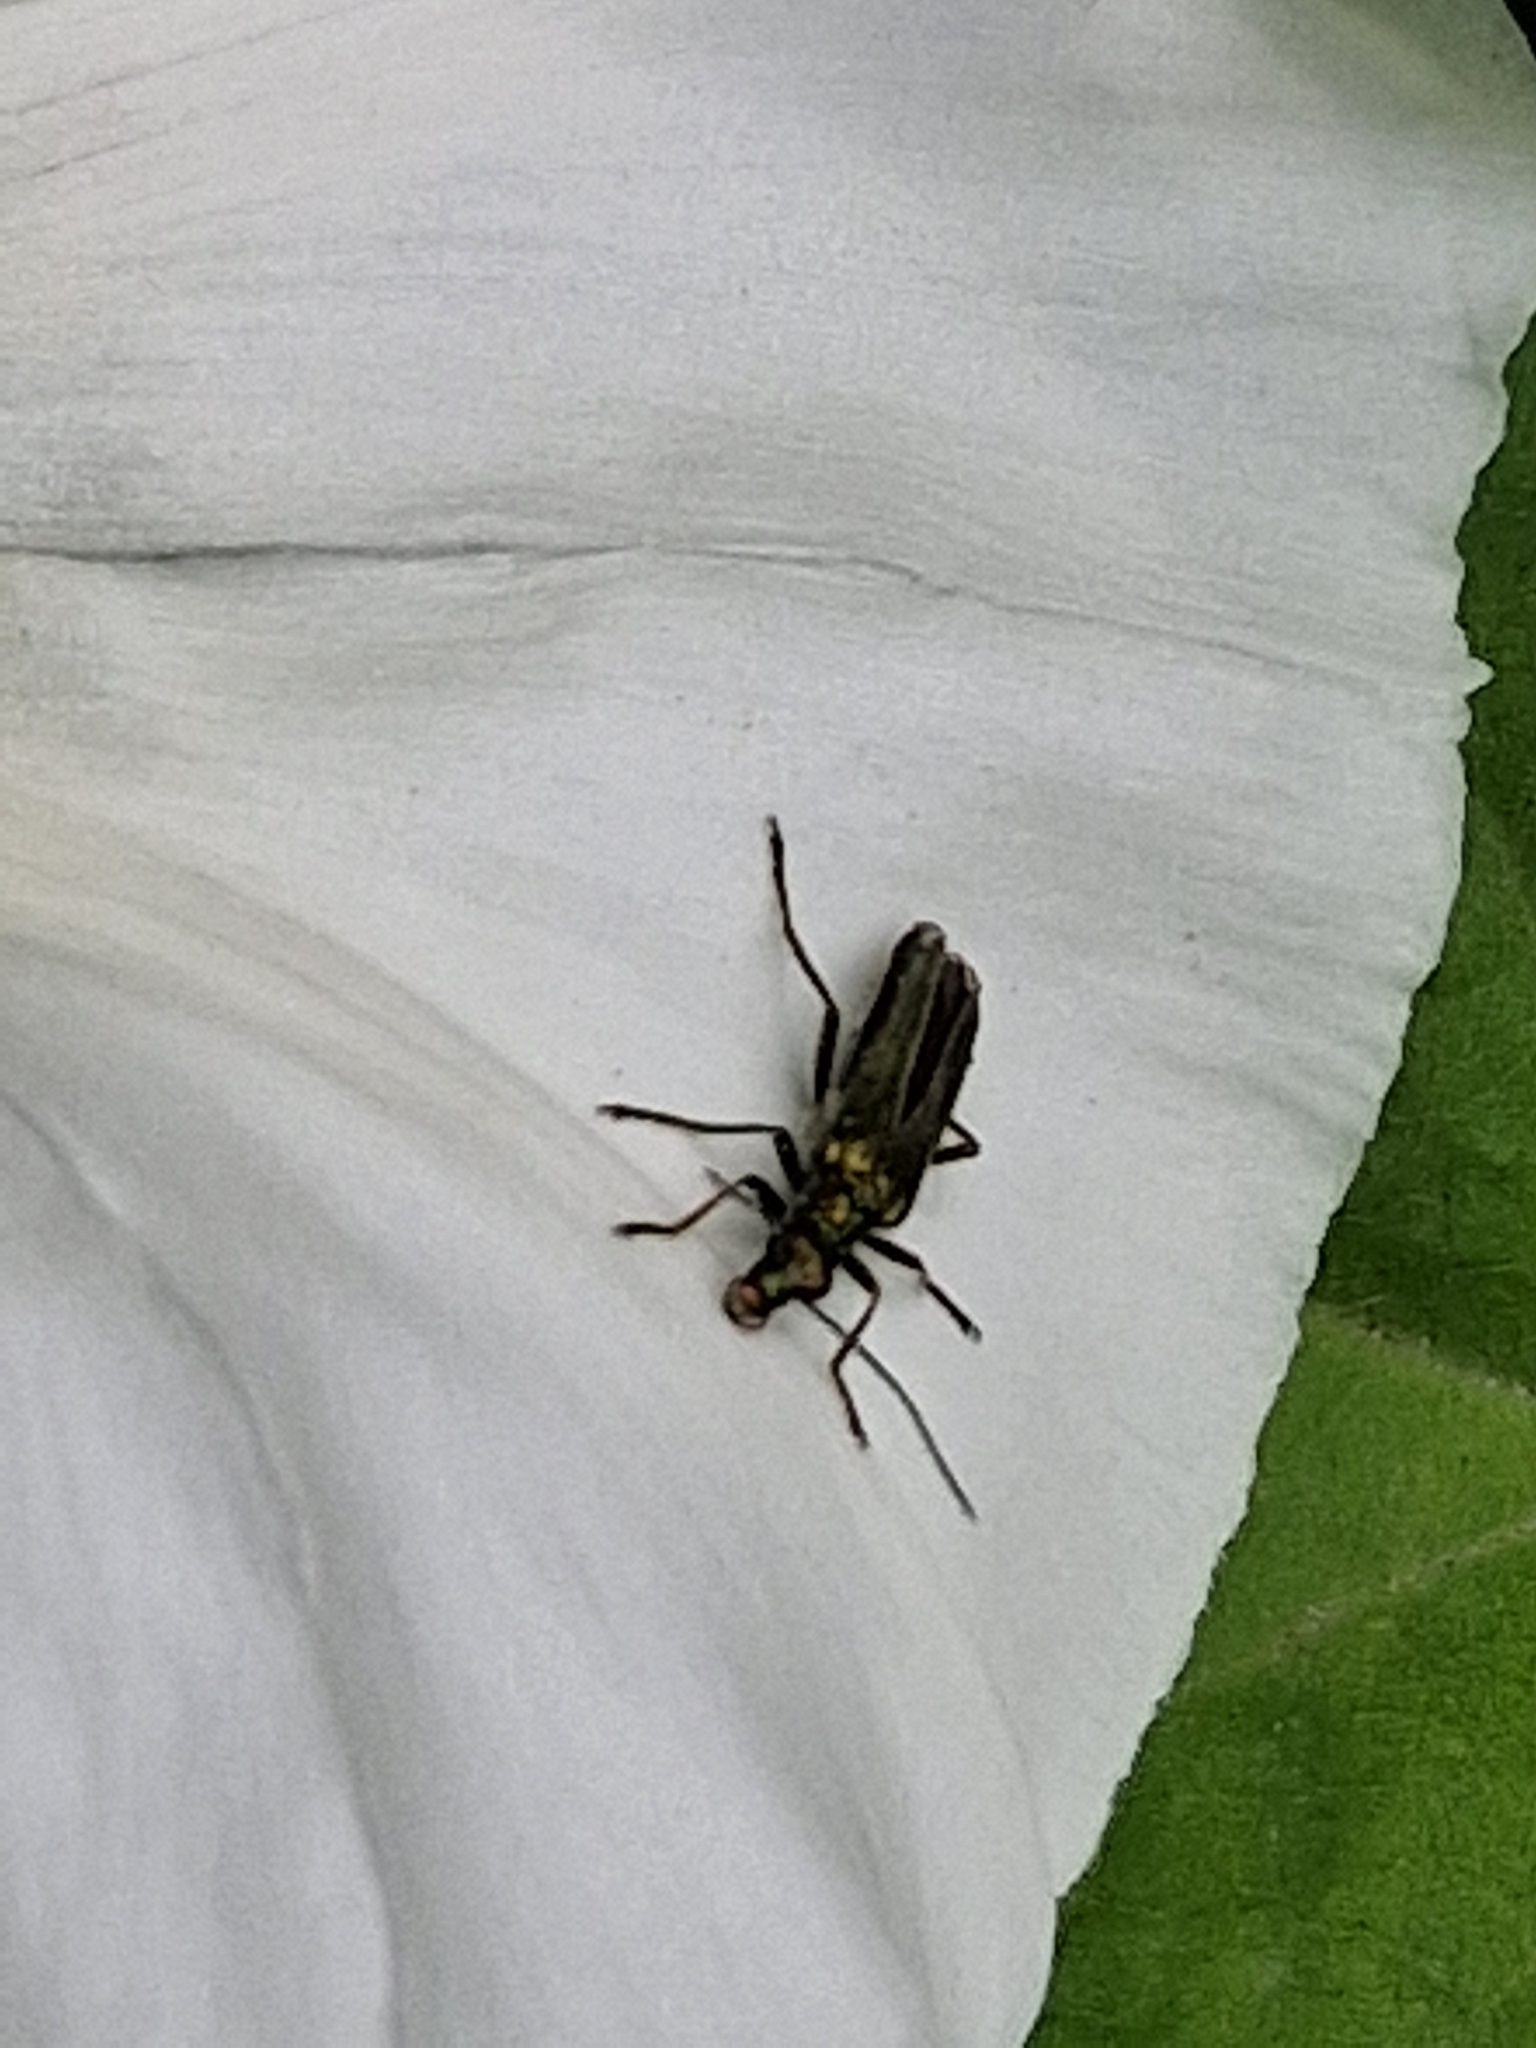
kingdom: Animalia
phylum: Arthropoda
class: Insecta
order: Coleoptera
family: Oedemeridae
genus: Oedemera
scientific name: Oedemera nobilis
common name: Swollen-thighed beetle
